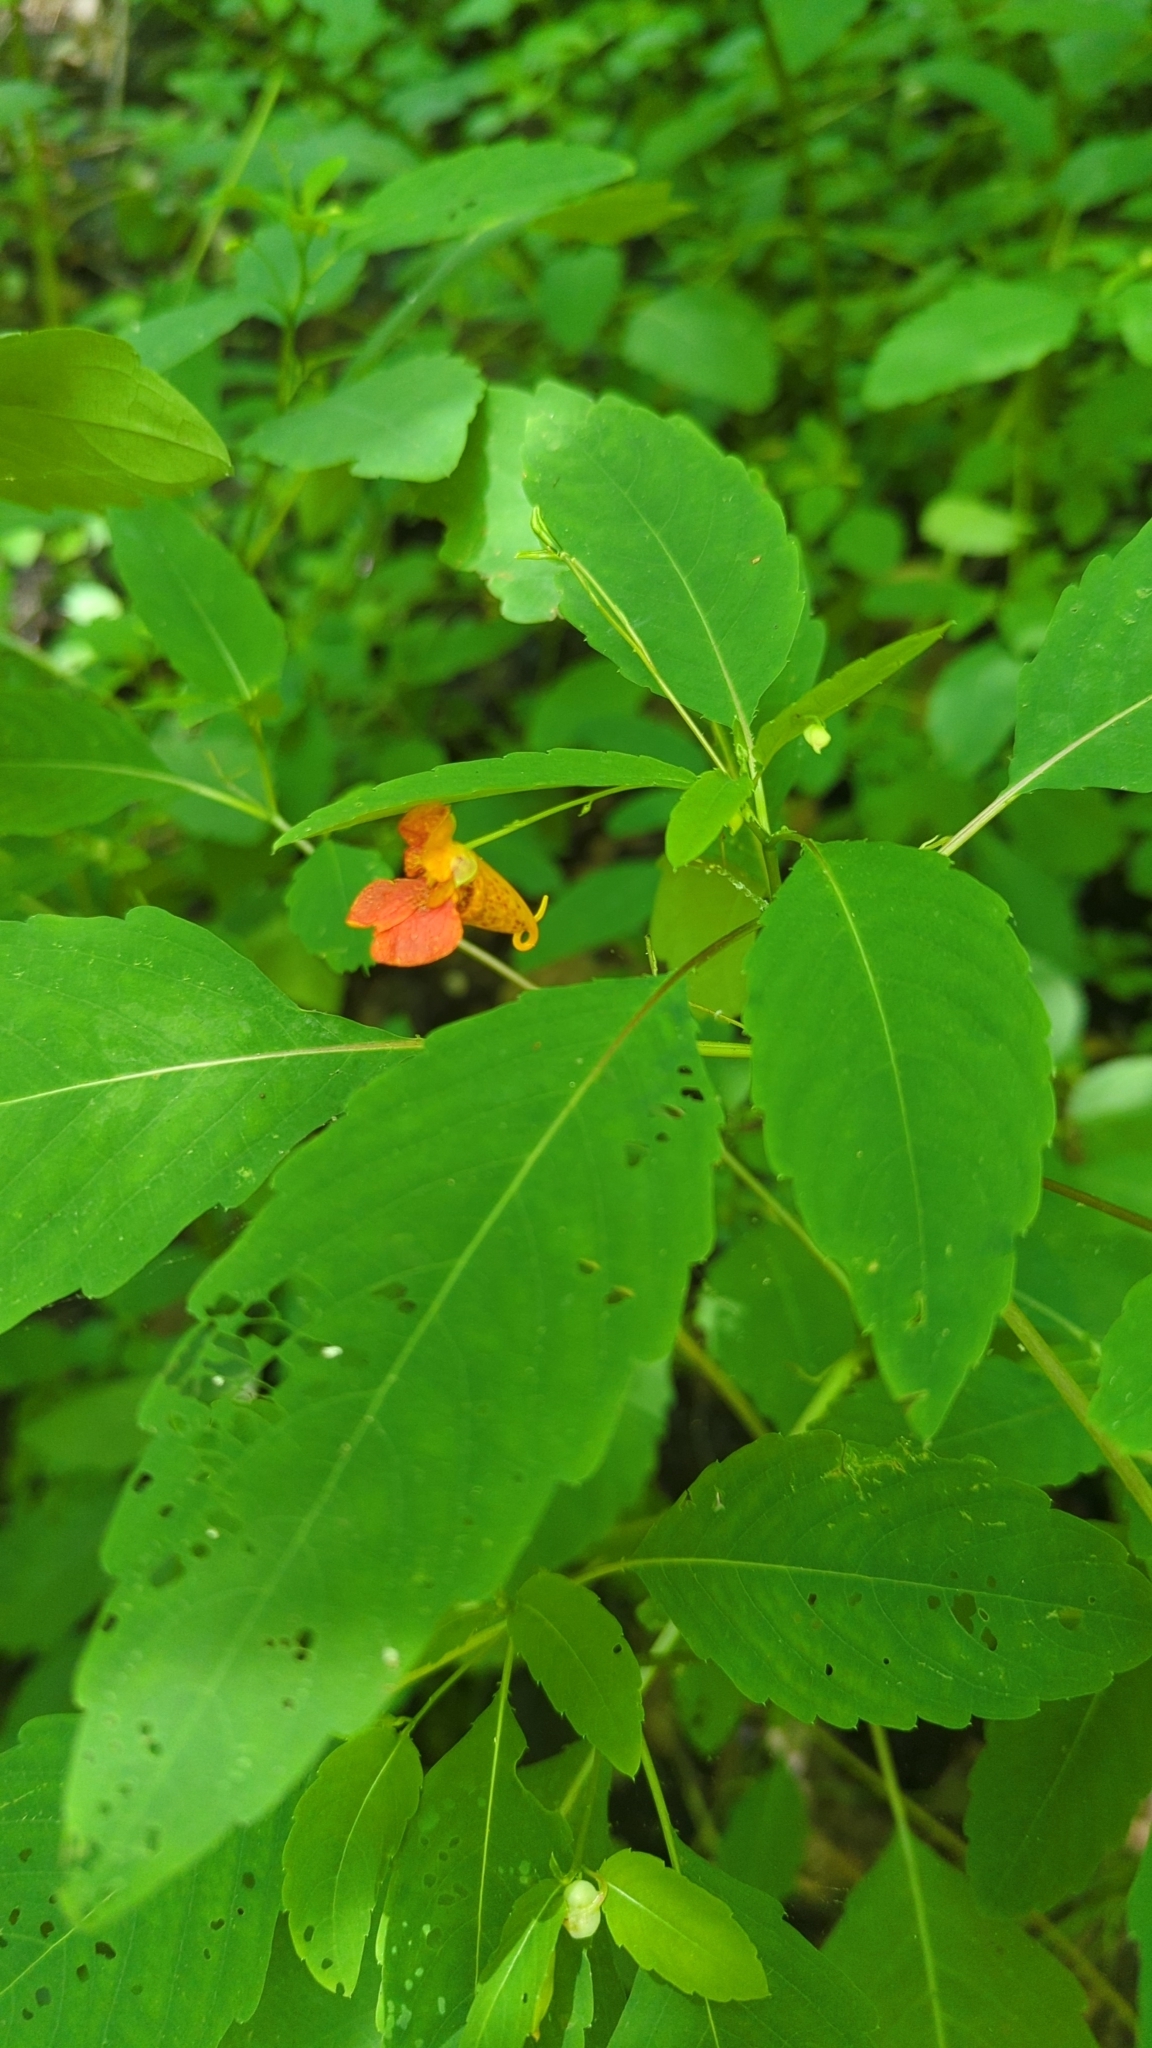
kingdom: Plantae
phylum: Tracheophyta
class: Magnoliopsida
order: Ericales
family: Balsaminaceae
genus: Impatiens
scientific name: Impatiens capensis
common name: Orange balsam
